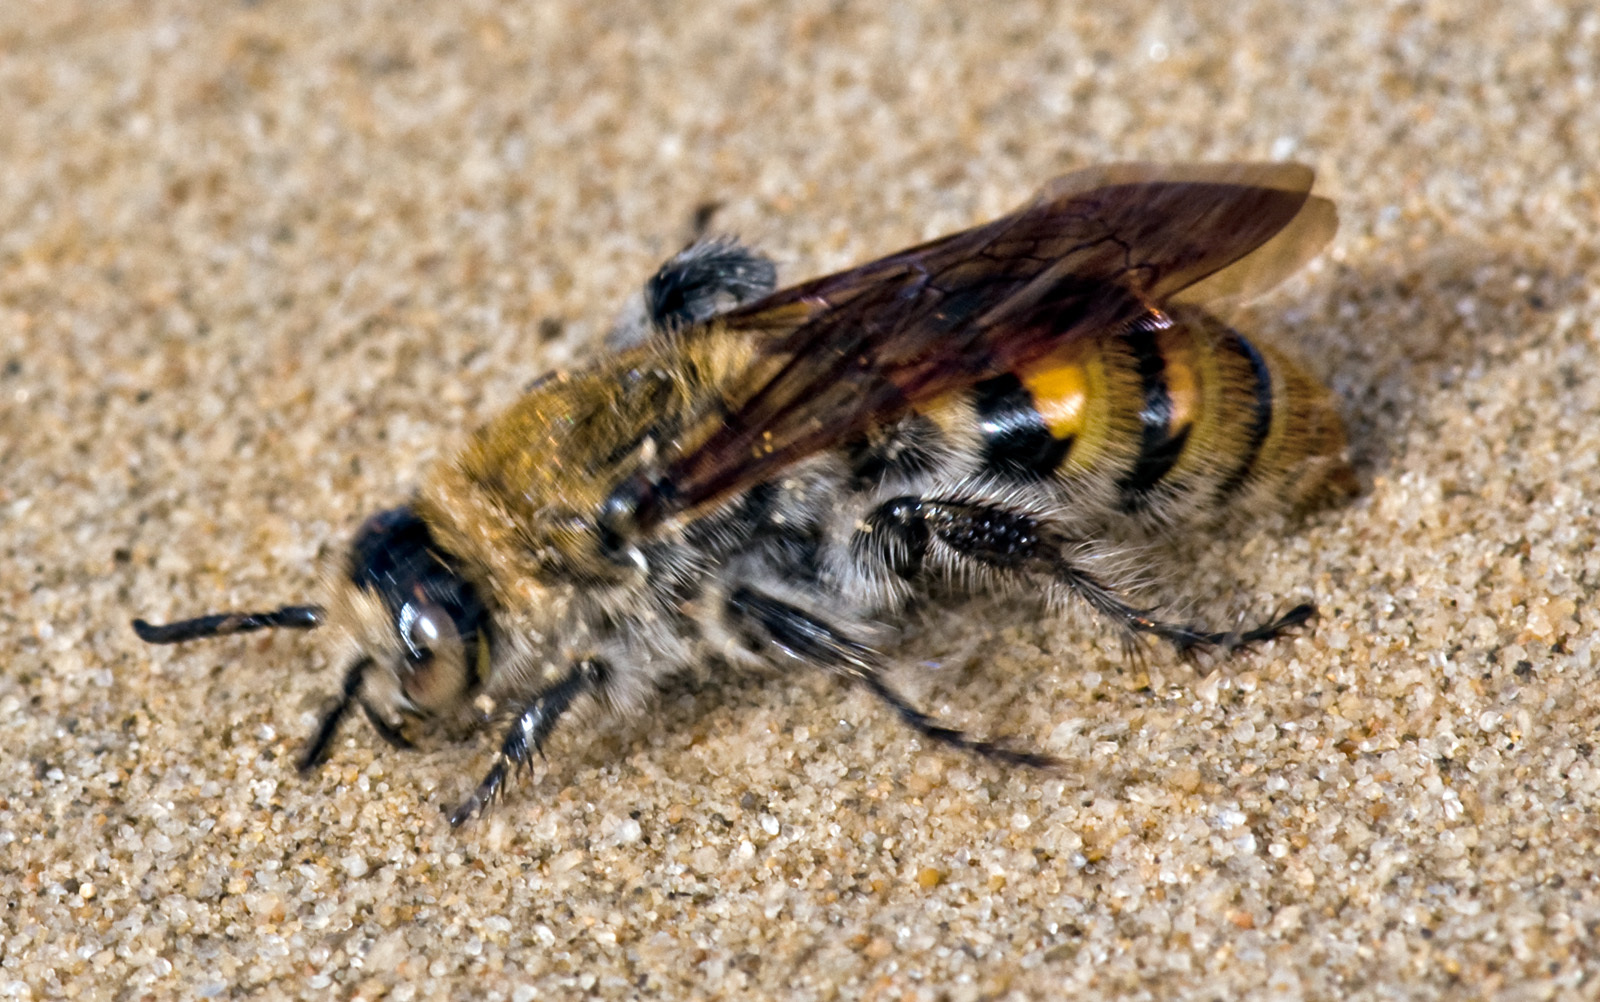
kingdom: Animalia
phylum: Arthropoda
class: Insecta
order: Hymenoptera
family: Scoliidae
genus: Radumeris
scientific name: Radumeris tasmaniensis
